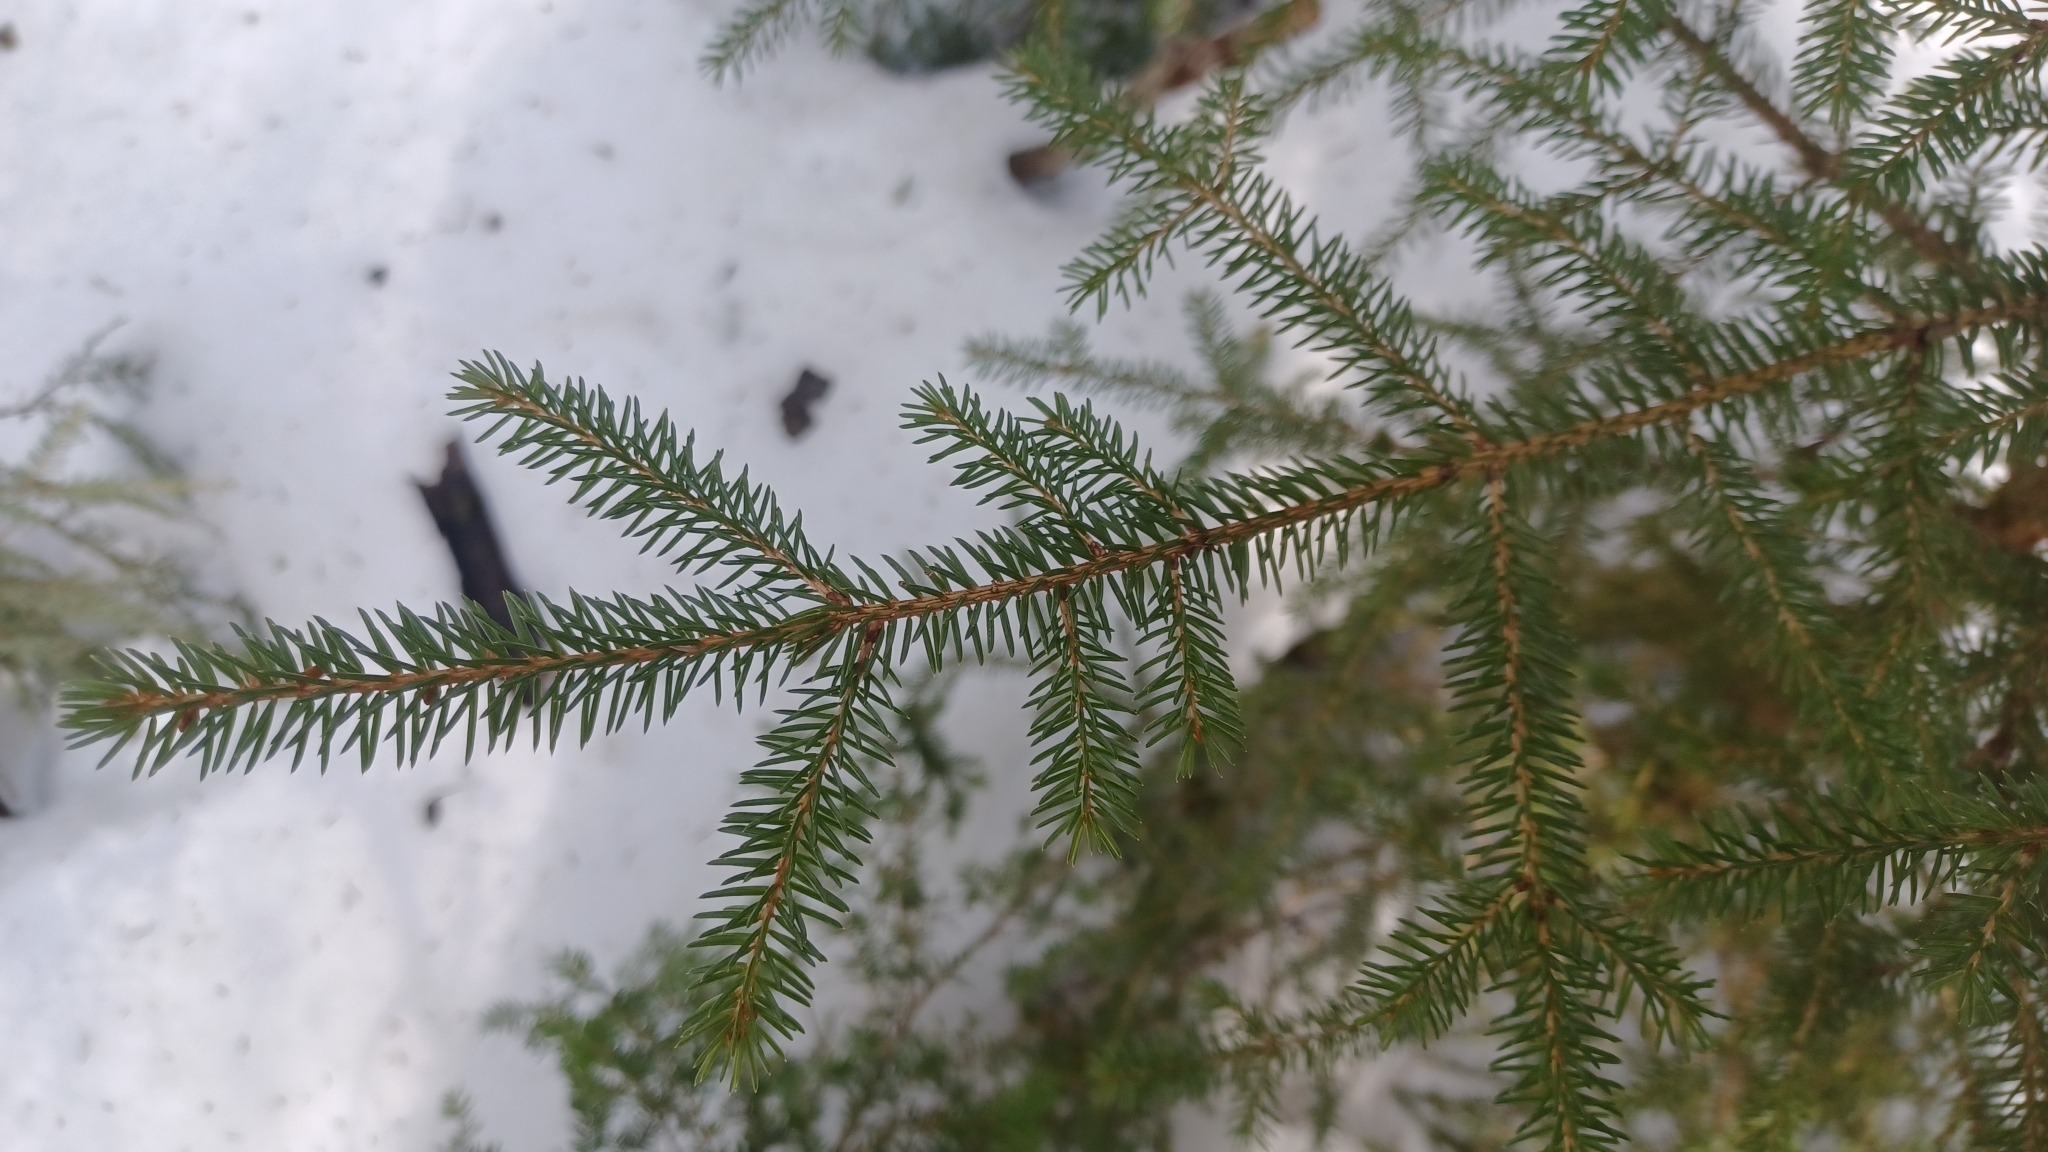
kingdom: Plantae
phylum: Tracheophyta
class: Pinopsida
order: Pinales
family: Pinaceae
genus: Picea
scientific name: Picea rubens
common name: Red spruce
